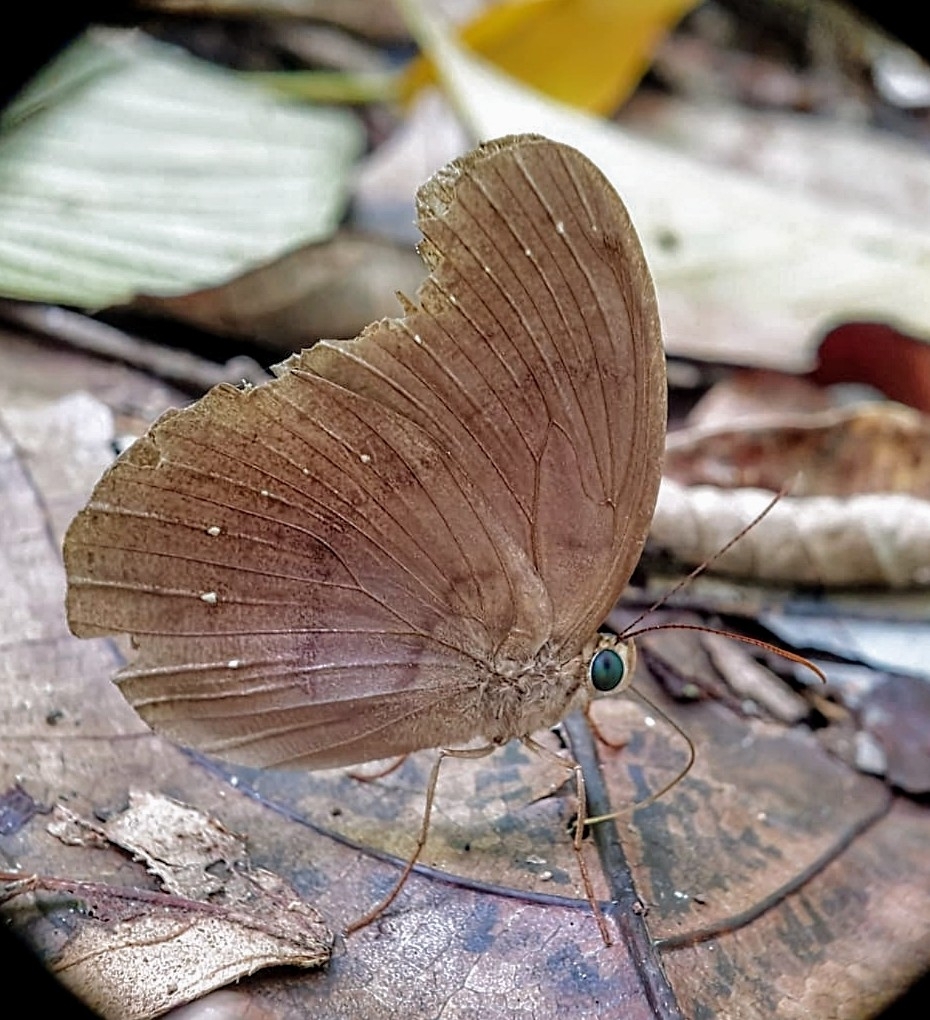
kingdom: Animalia
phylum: Arthropoda
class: Insecta
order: Lepidoptera
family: Nymphalidae
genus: Faunis
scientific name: Faunis canens
